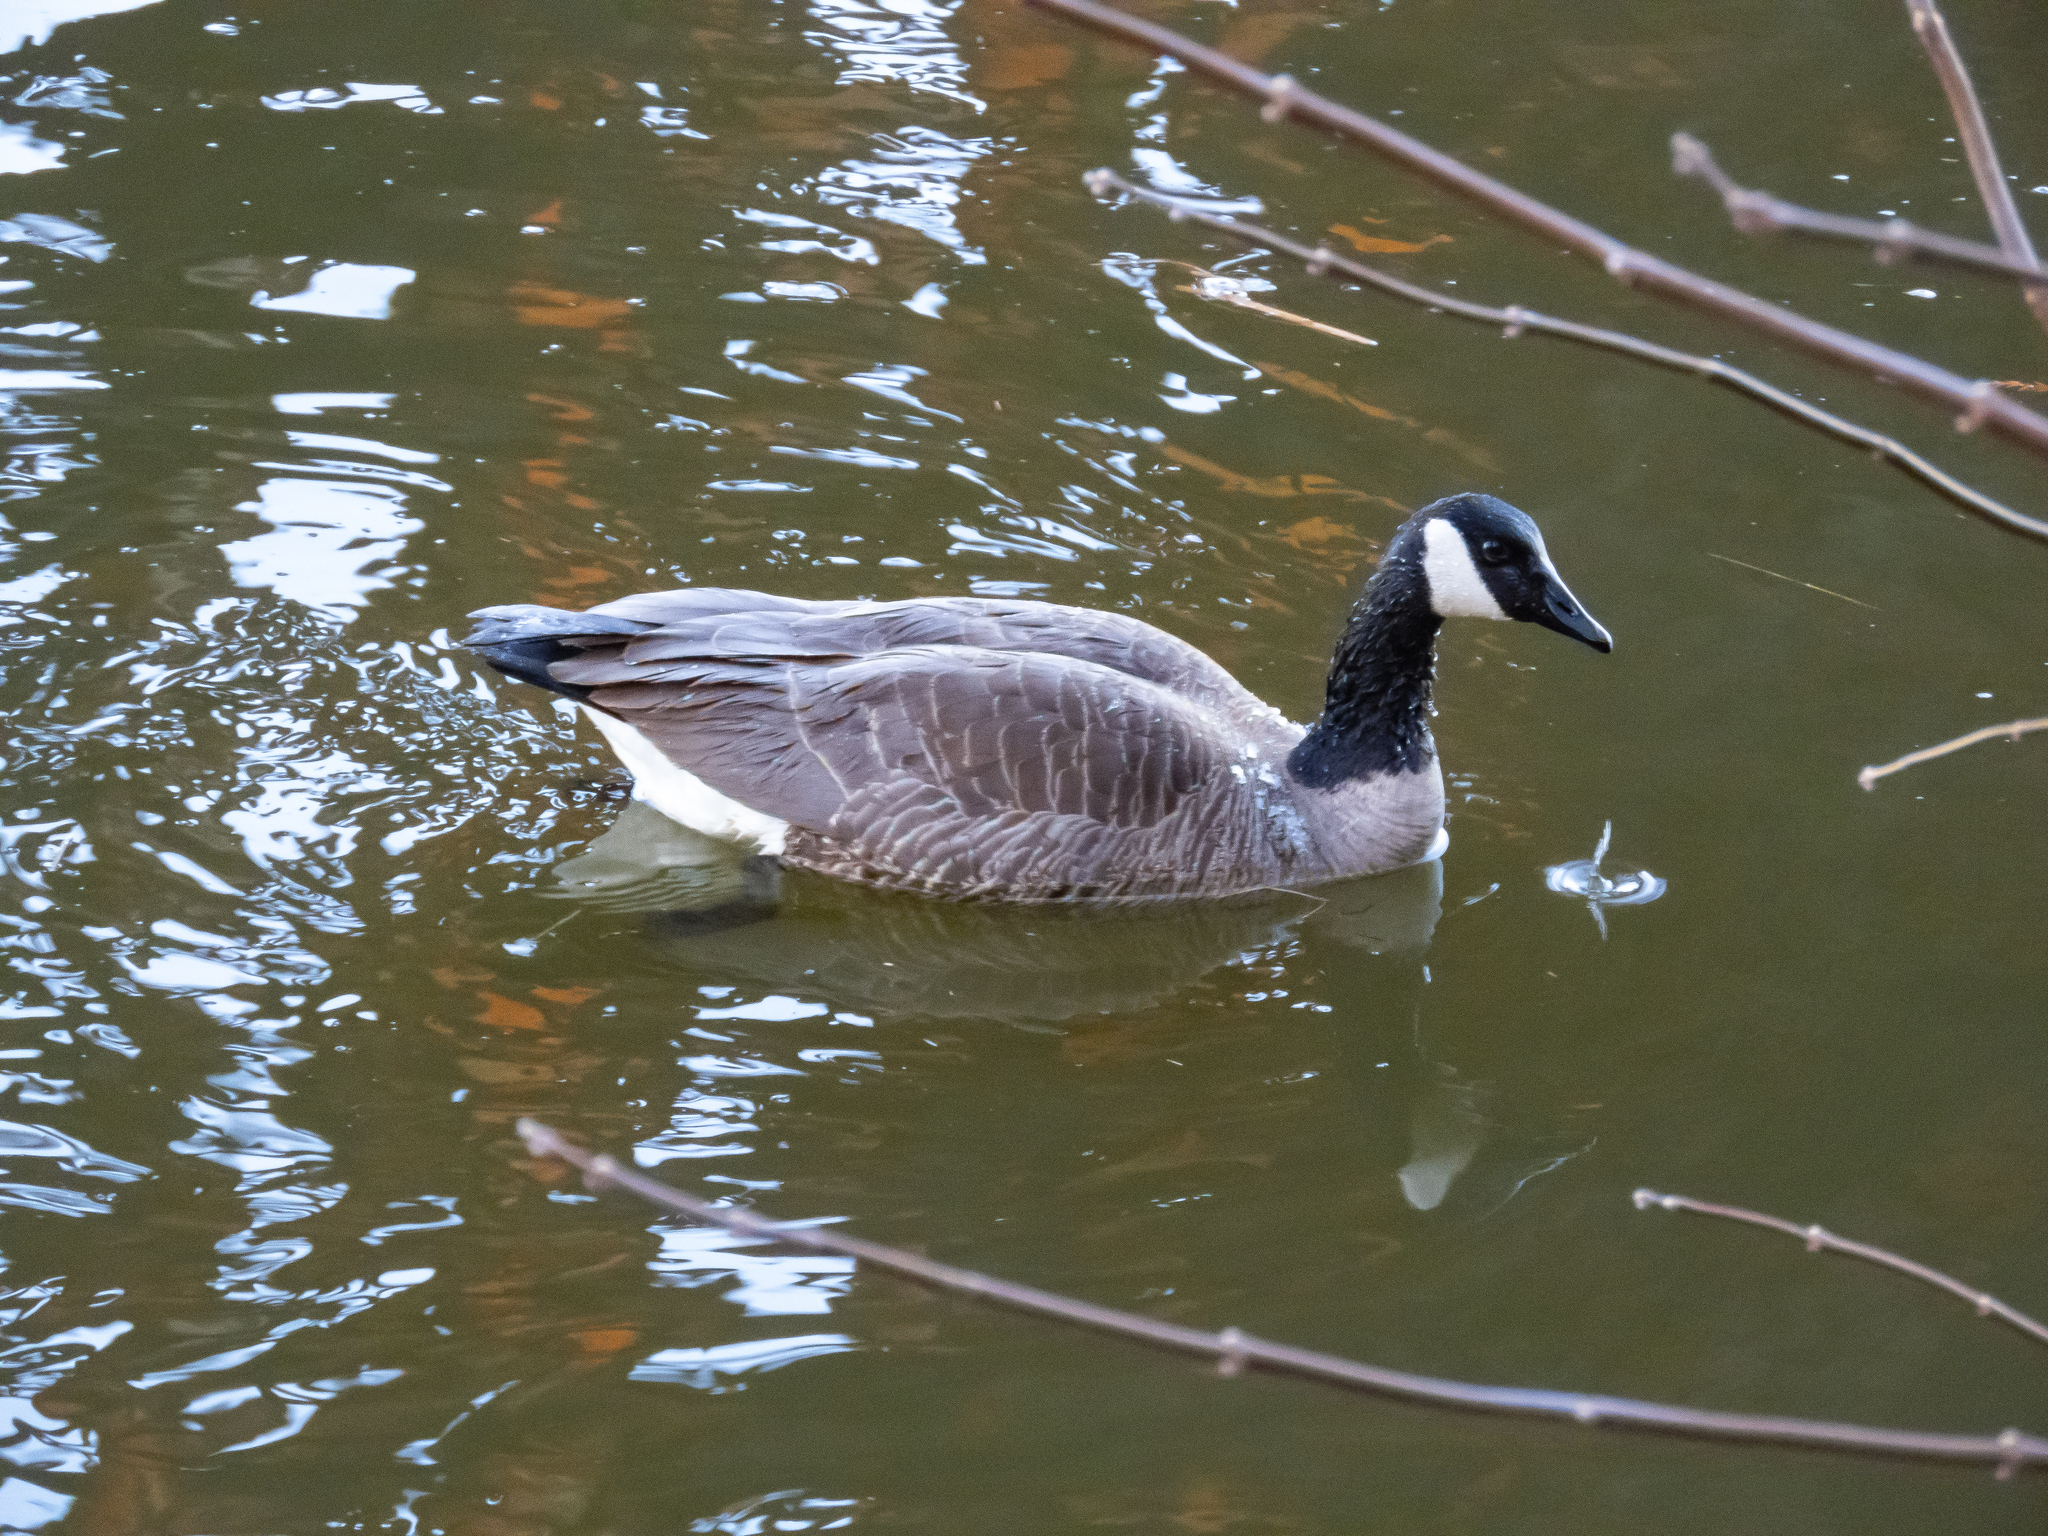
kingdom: Animalia
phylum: Chordata
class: Aves
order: Anseriformes
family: Anatidae
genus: Branta
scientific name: Branta canadensis
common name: Canada goose
